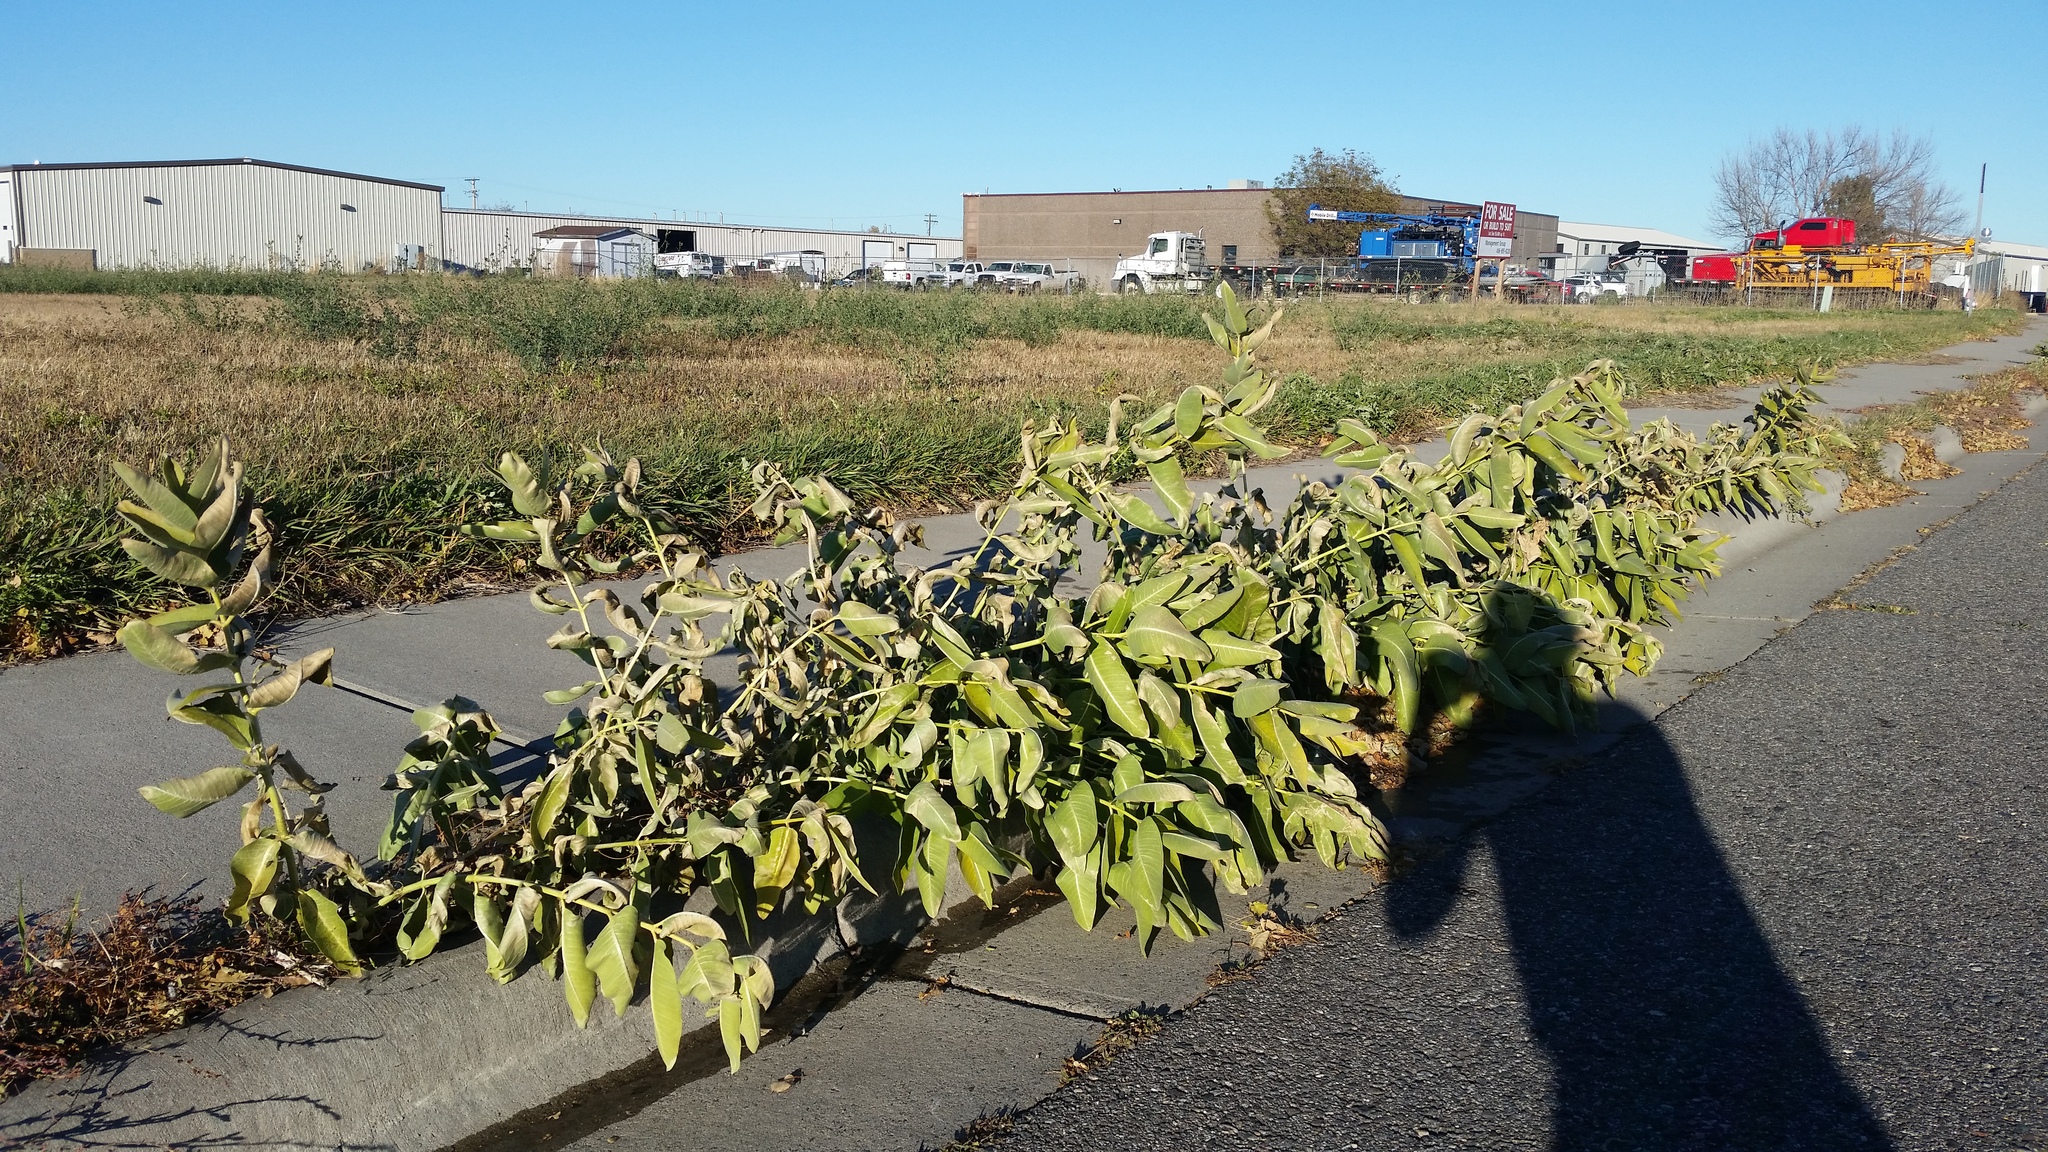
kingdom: Plantae
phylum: Tracheophyta
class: Magnoliopsida
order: Gentianales
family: Apocynaceae
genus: Asclepias
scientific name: Asclepias speciosa
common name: Showy milkweed
